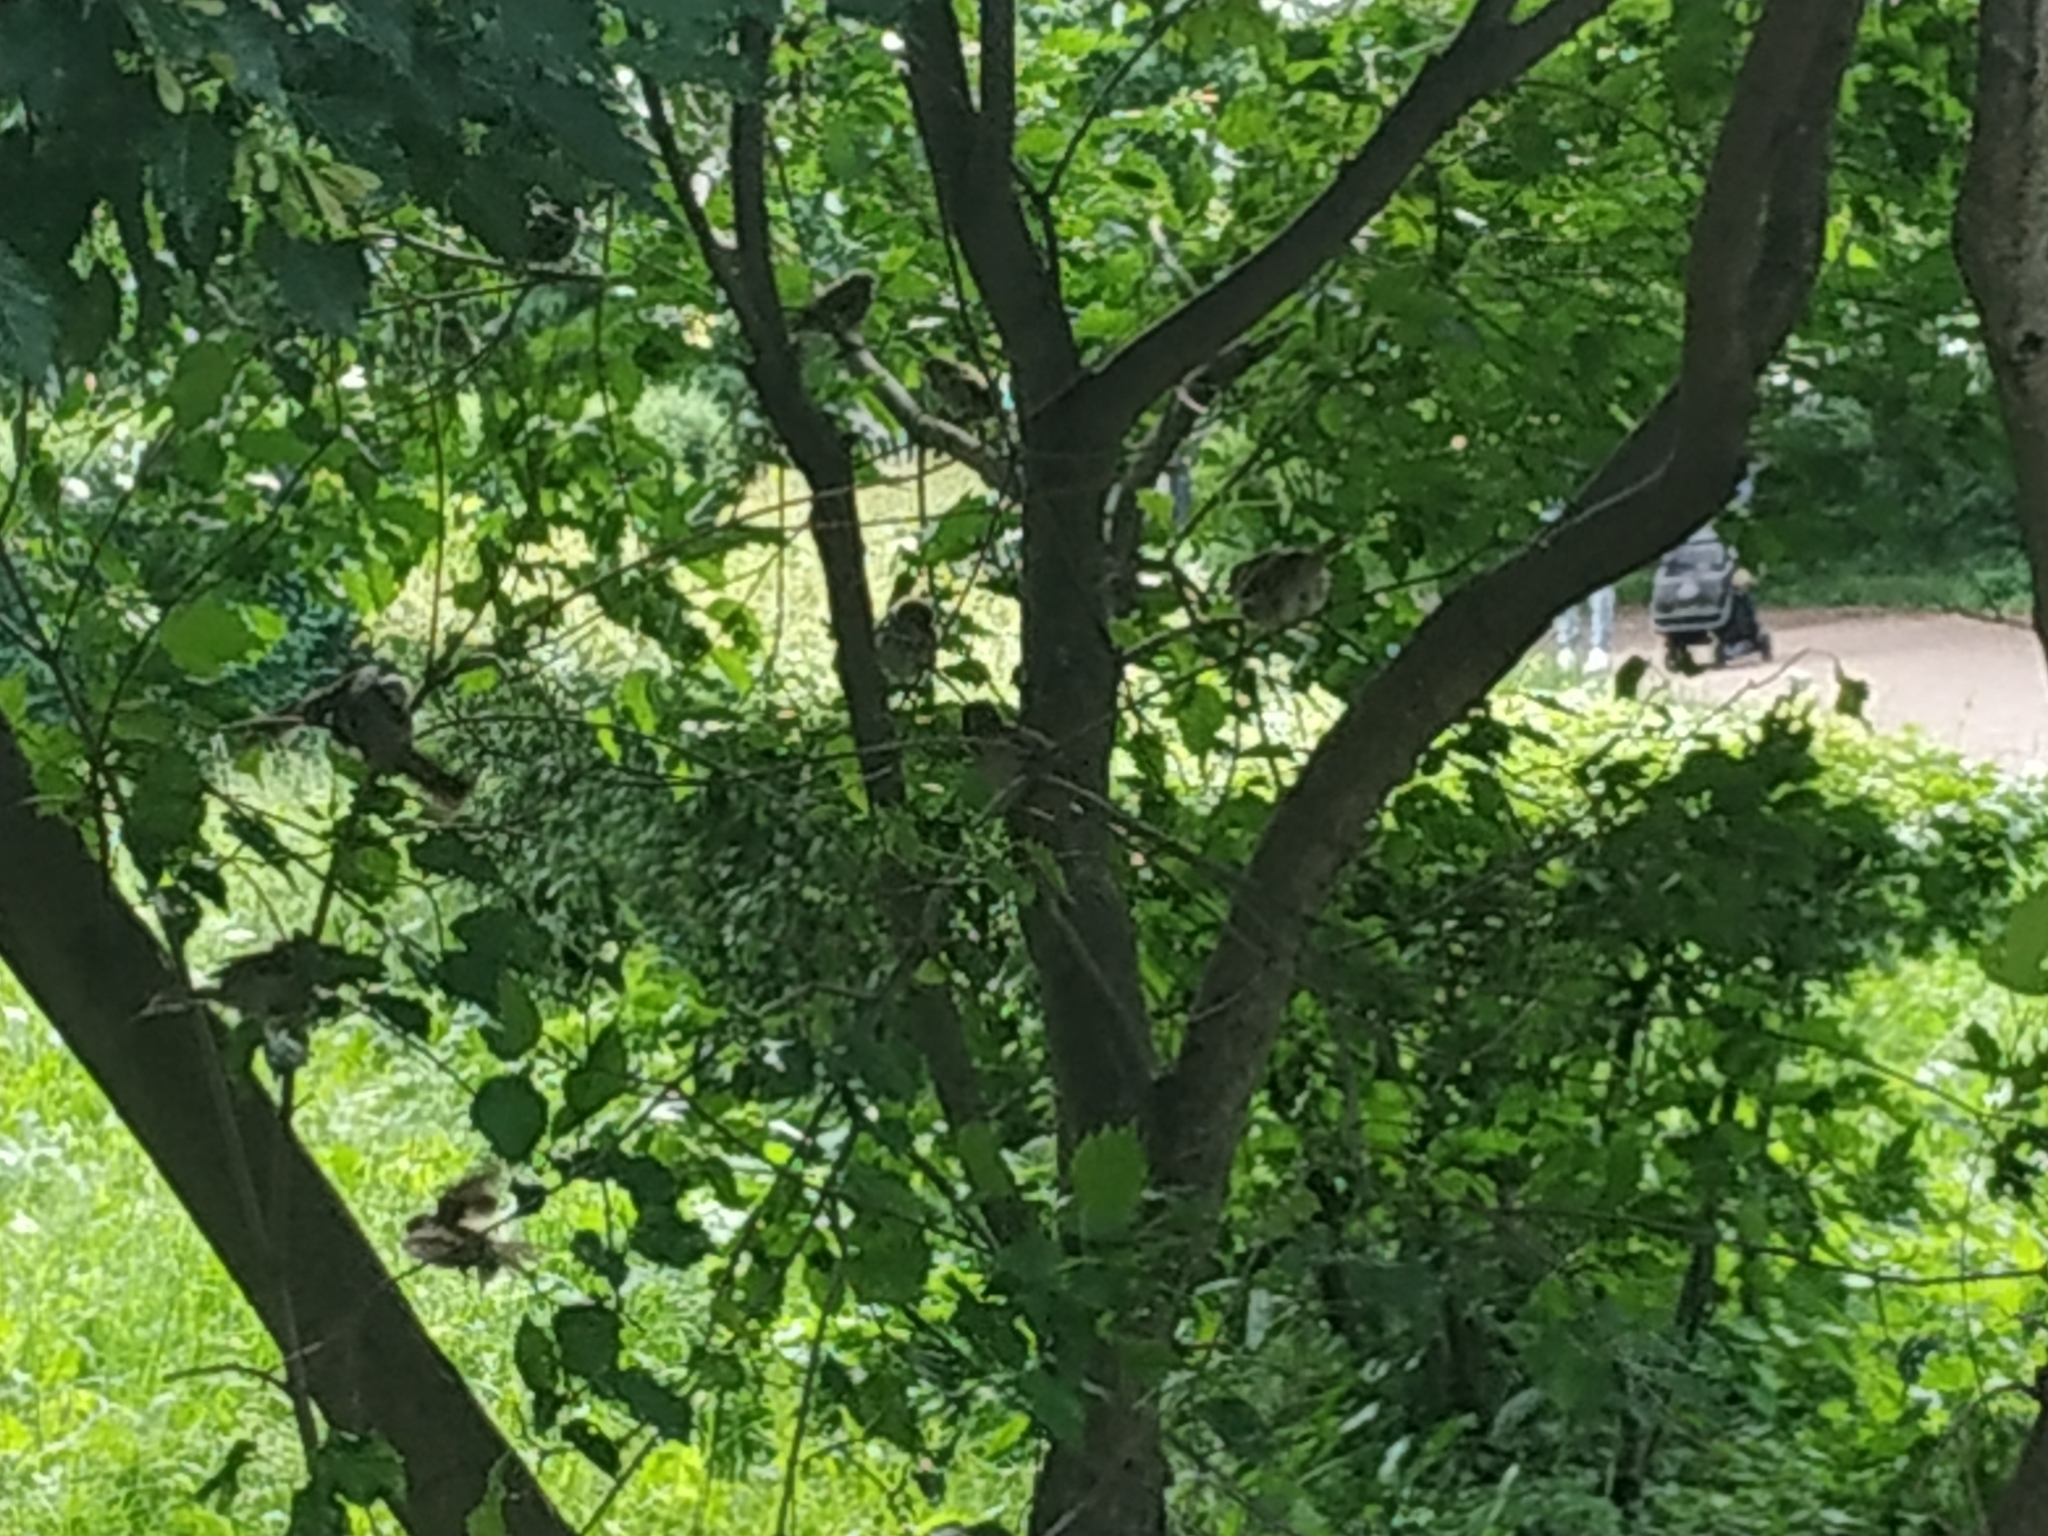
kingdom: Animalia
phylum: Chordata
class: Aves
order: Passeriformes
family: Passeridae
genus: Passer
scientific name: Passer domesticus
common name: House sparrow
